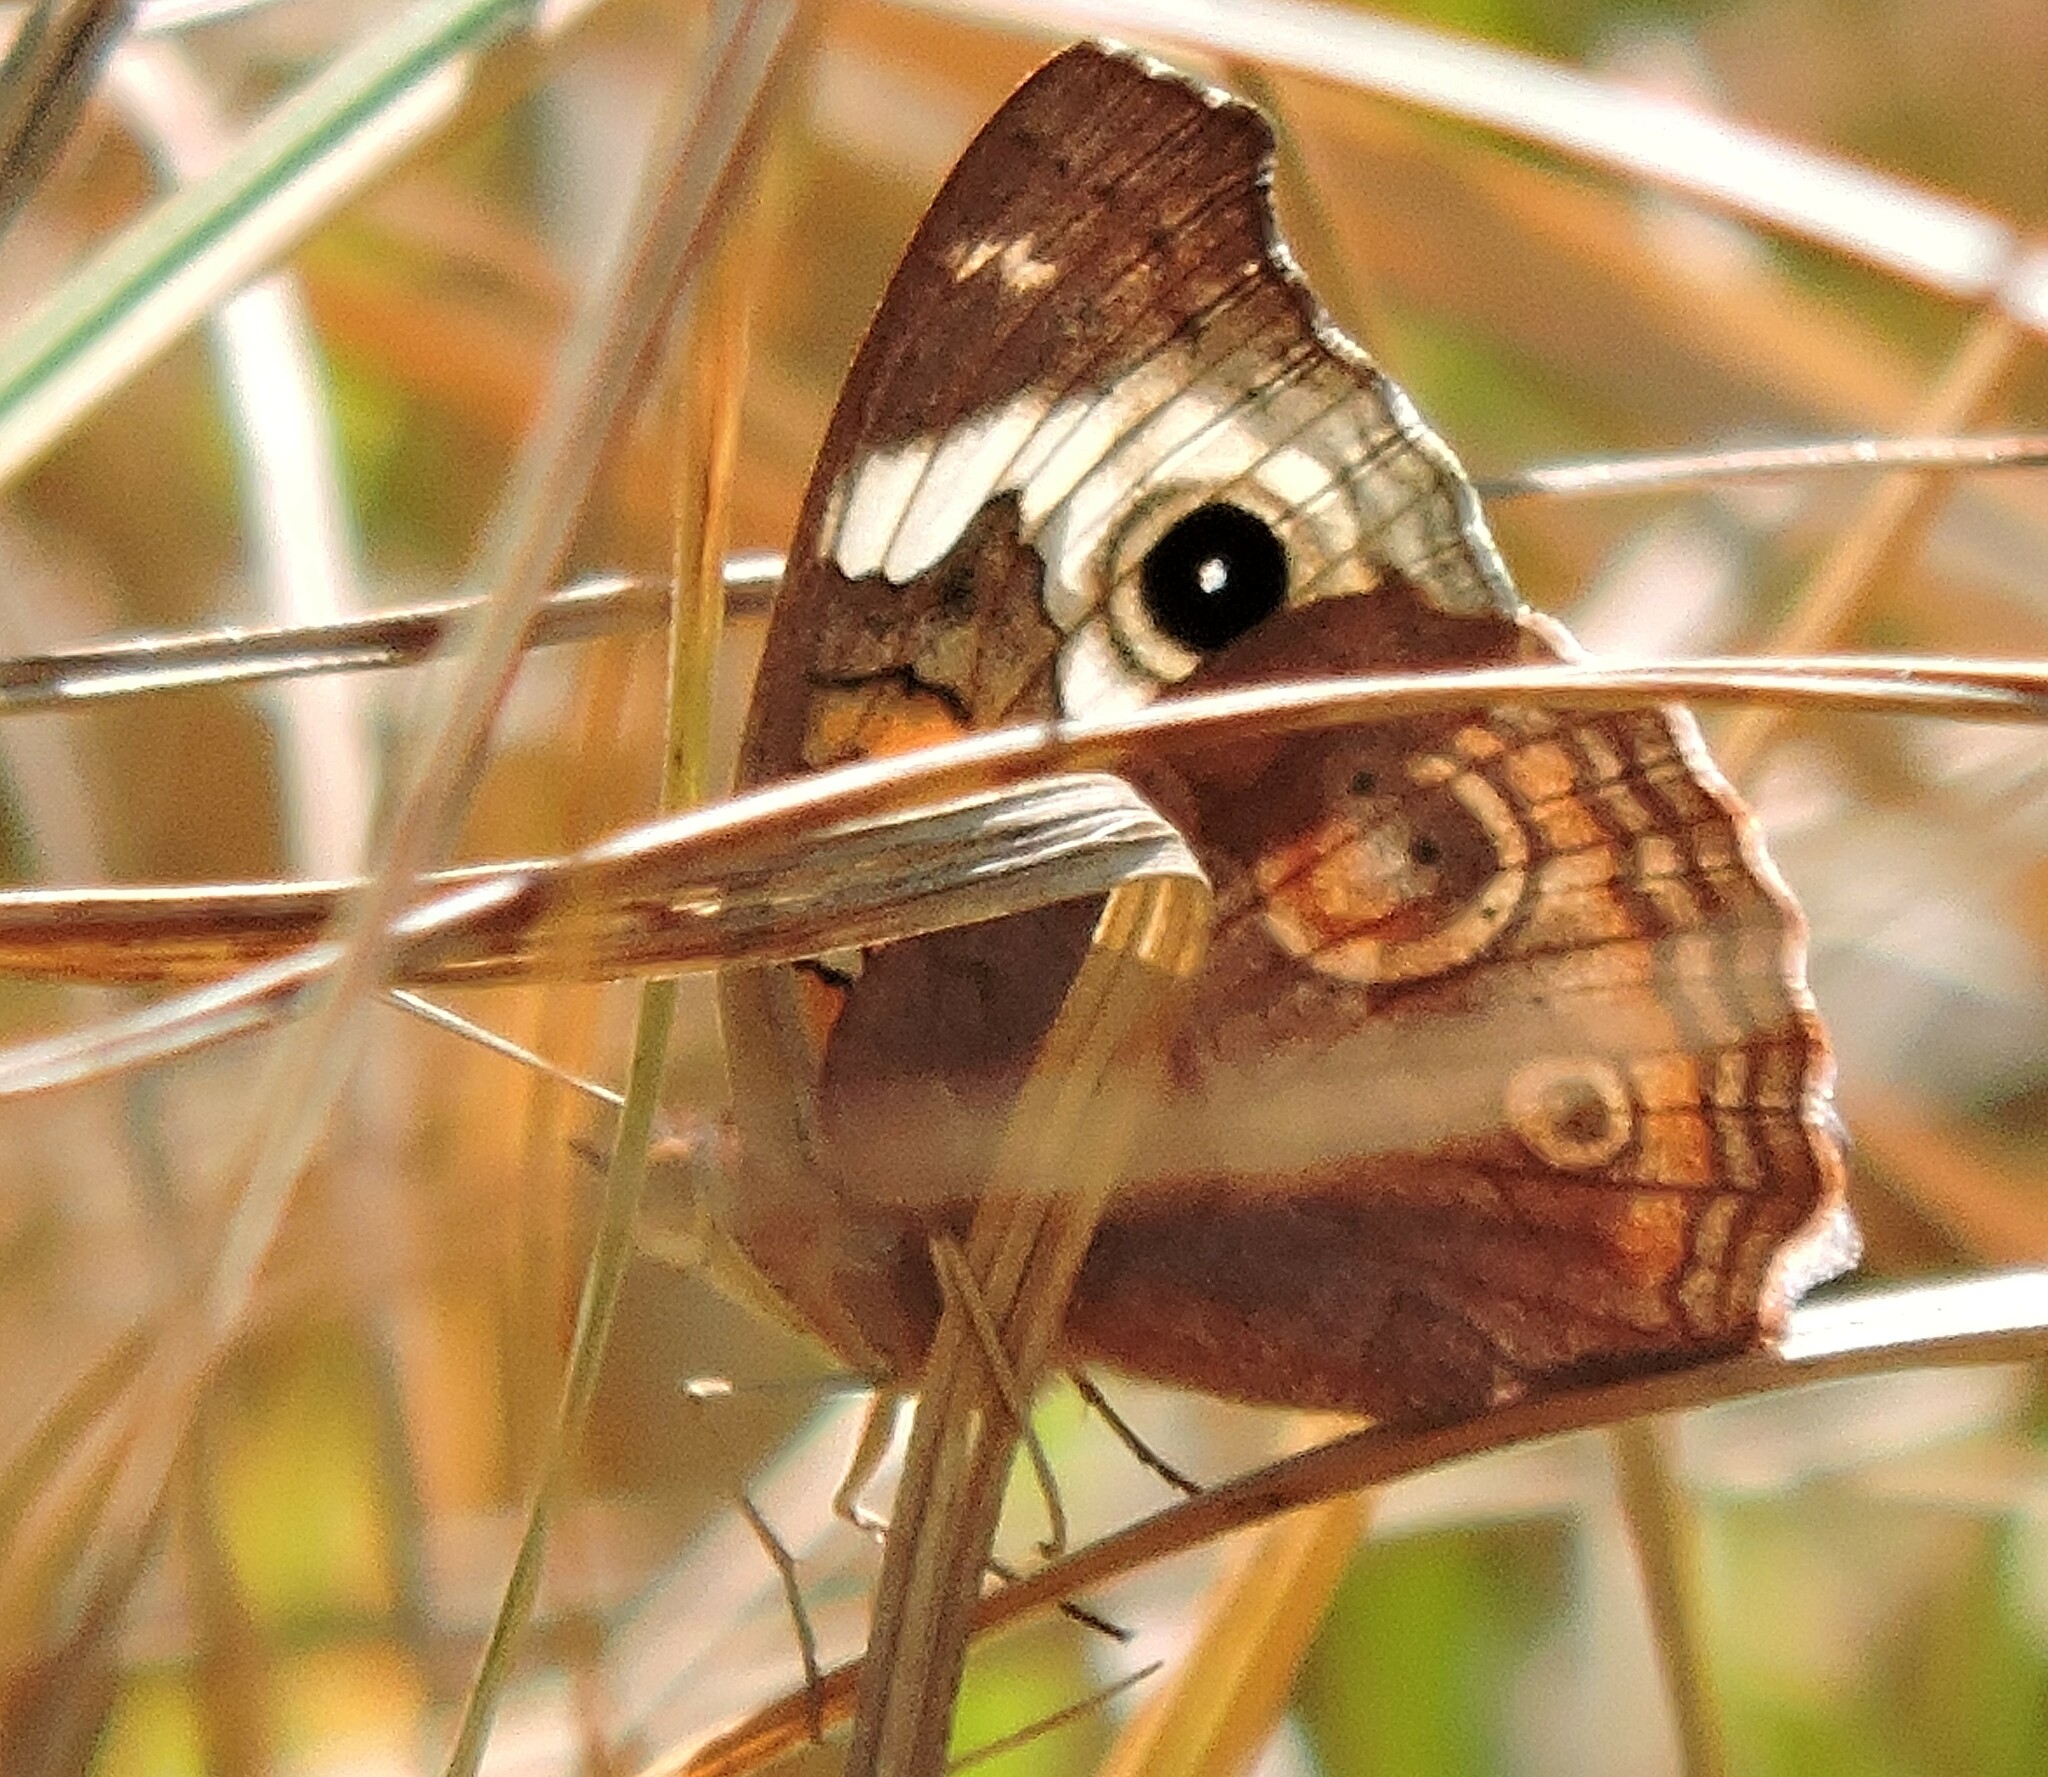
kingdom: Animalia
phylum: Arthropoda
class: Insecta
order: Lepidoptera
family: Nymphalidae
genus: Junonia
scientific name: Junonia grisea
